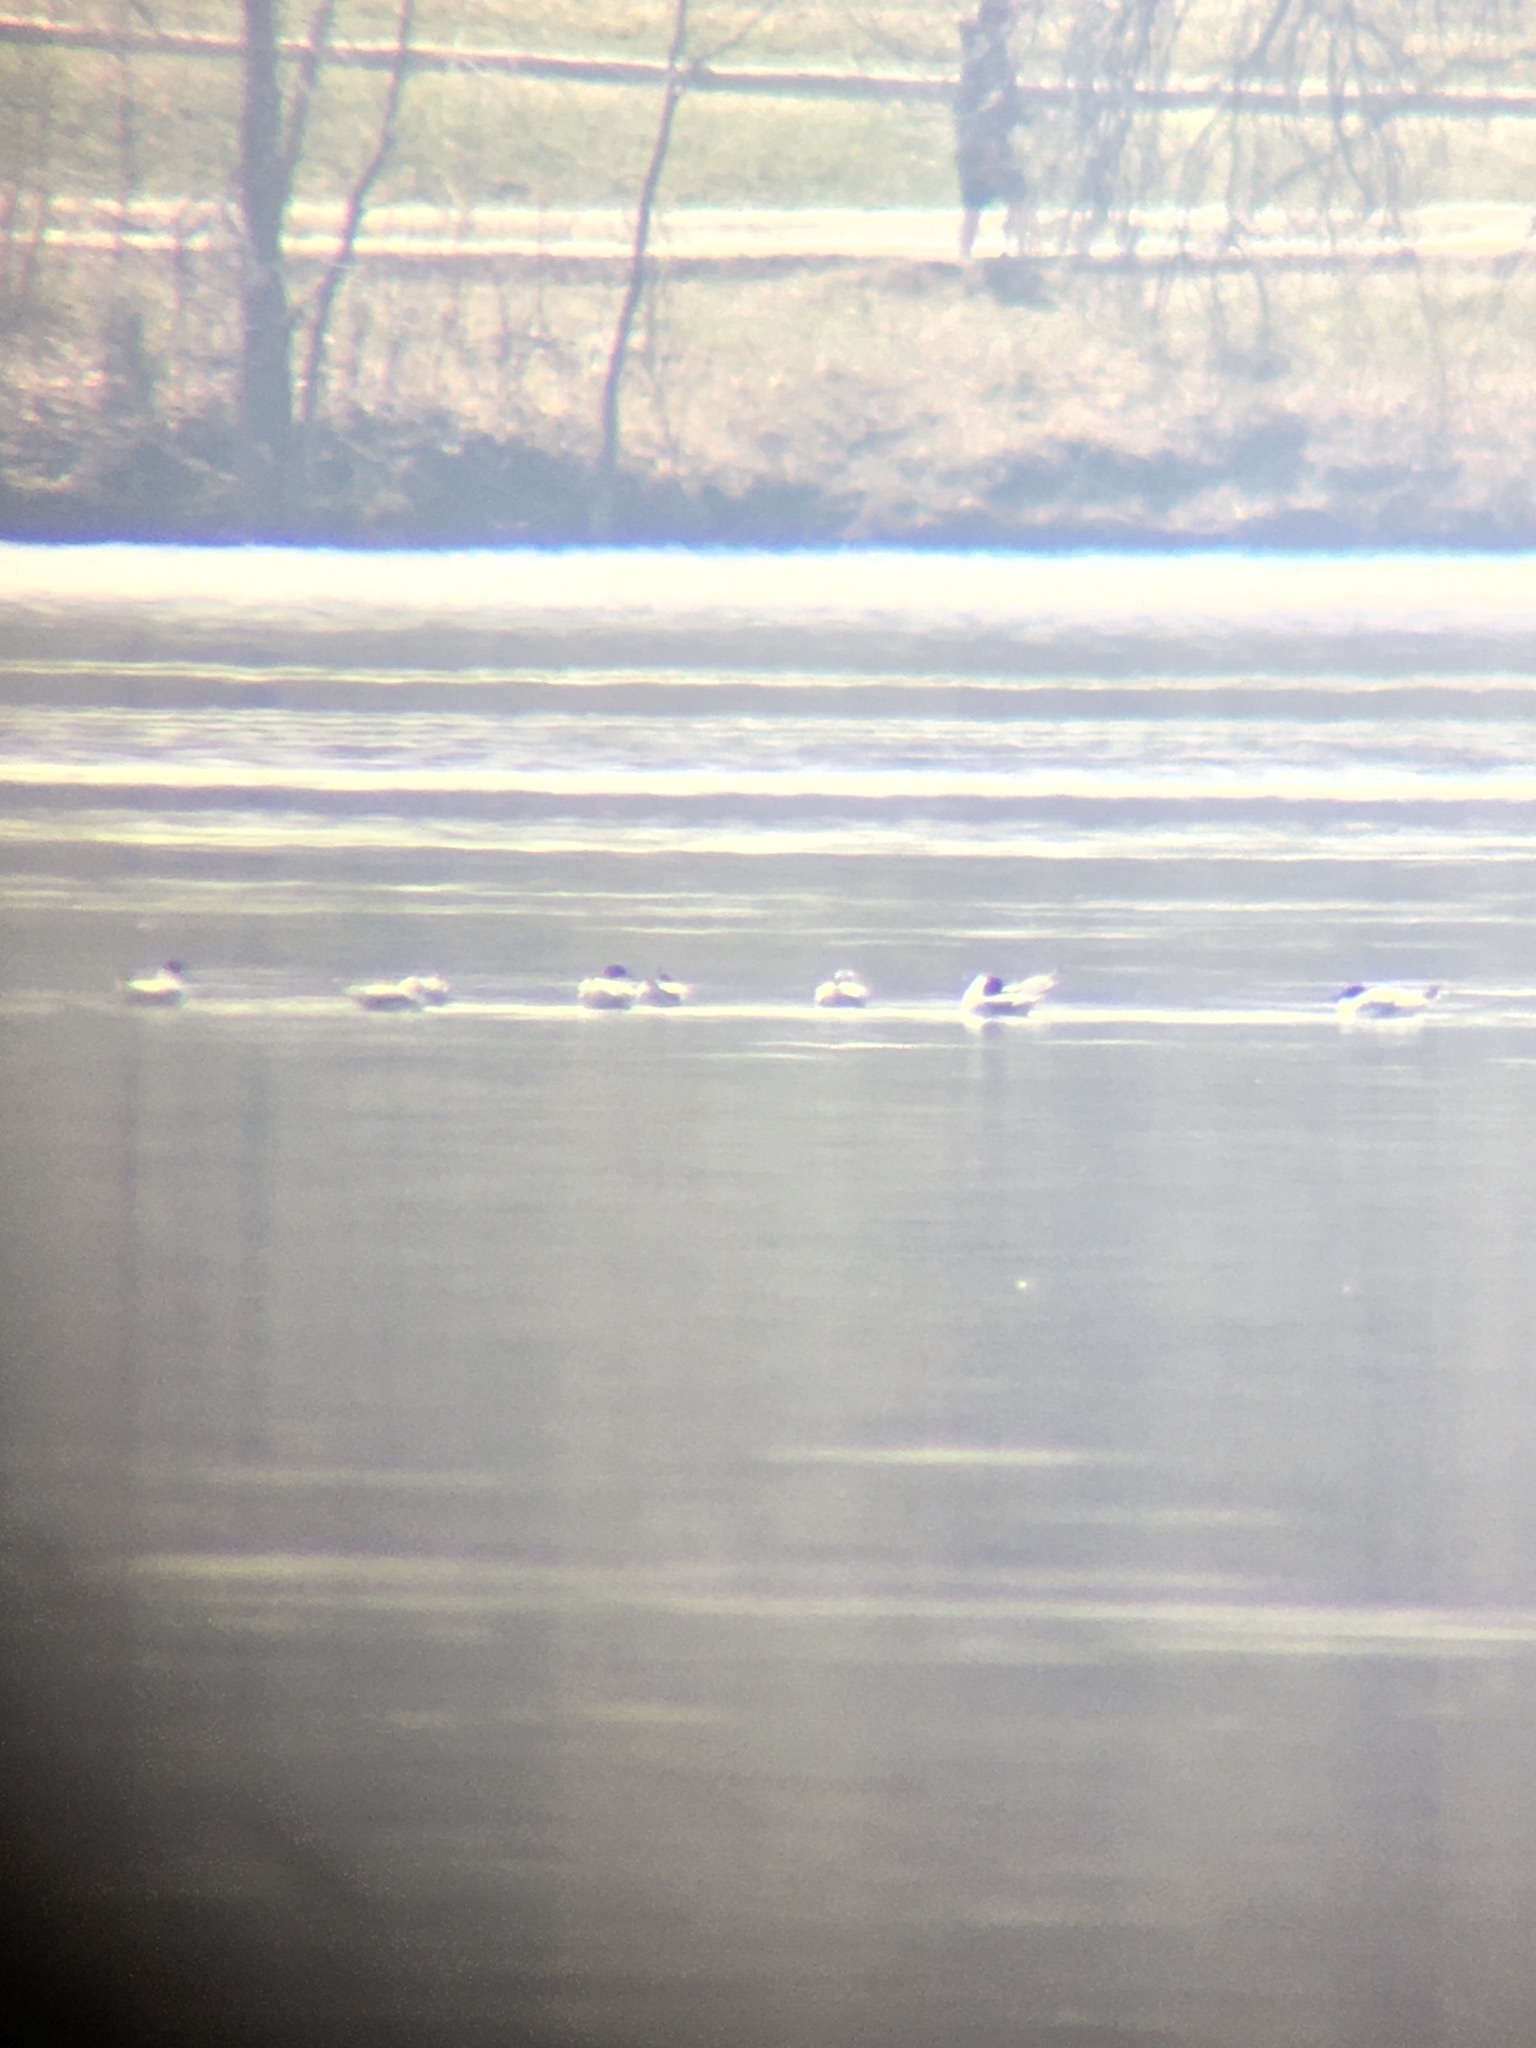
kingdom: Animalia
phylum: Chordata
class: Aves
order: Charadriiformes
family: Laridae
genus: Chroicocephalus
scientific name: Chroicocephalus philadelphia
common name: Bonaparte's gull
